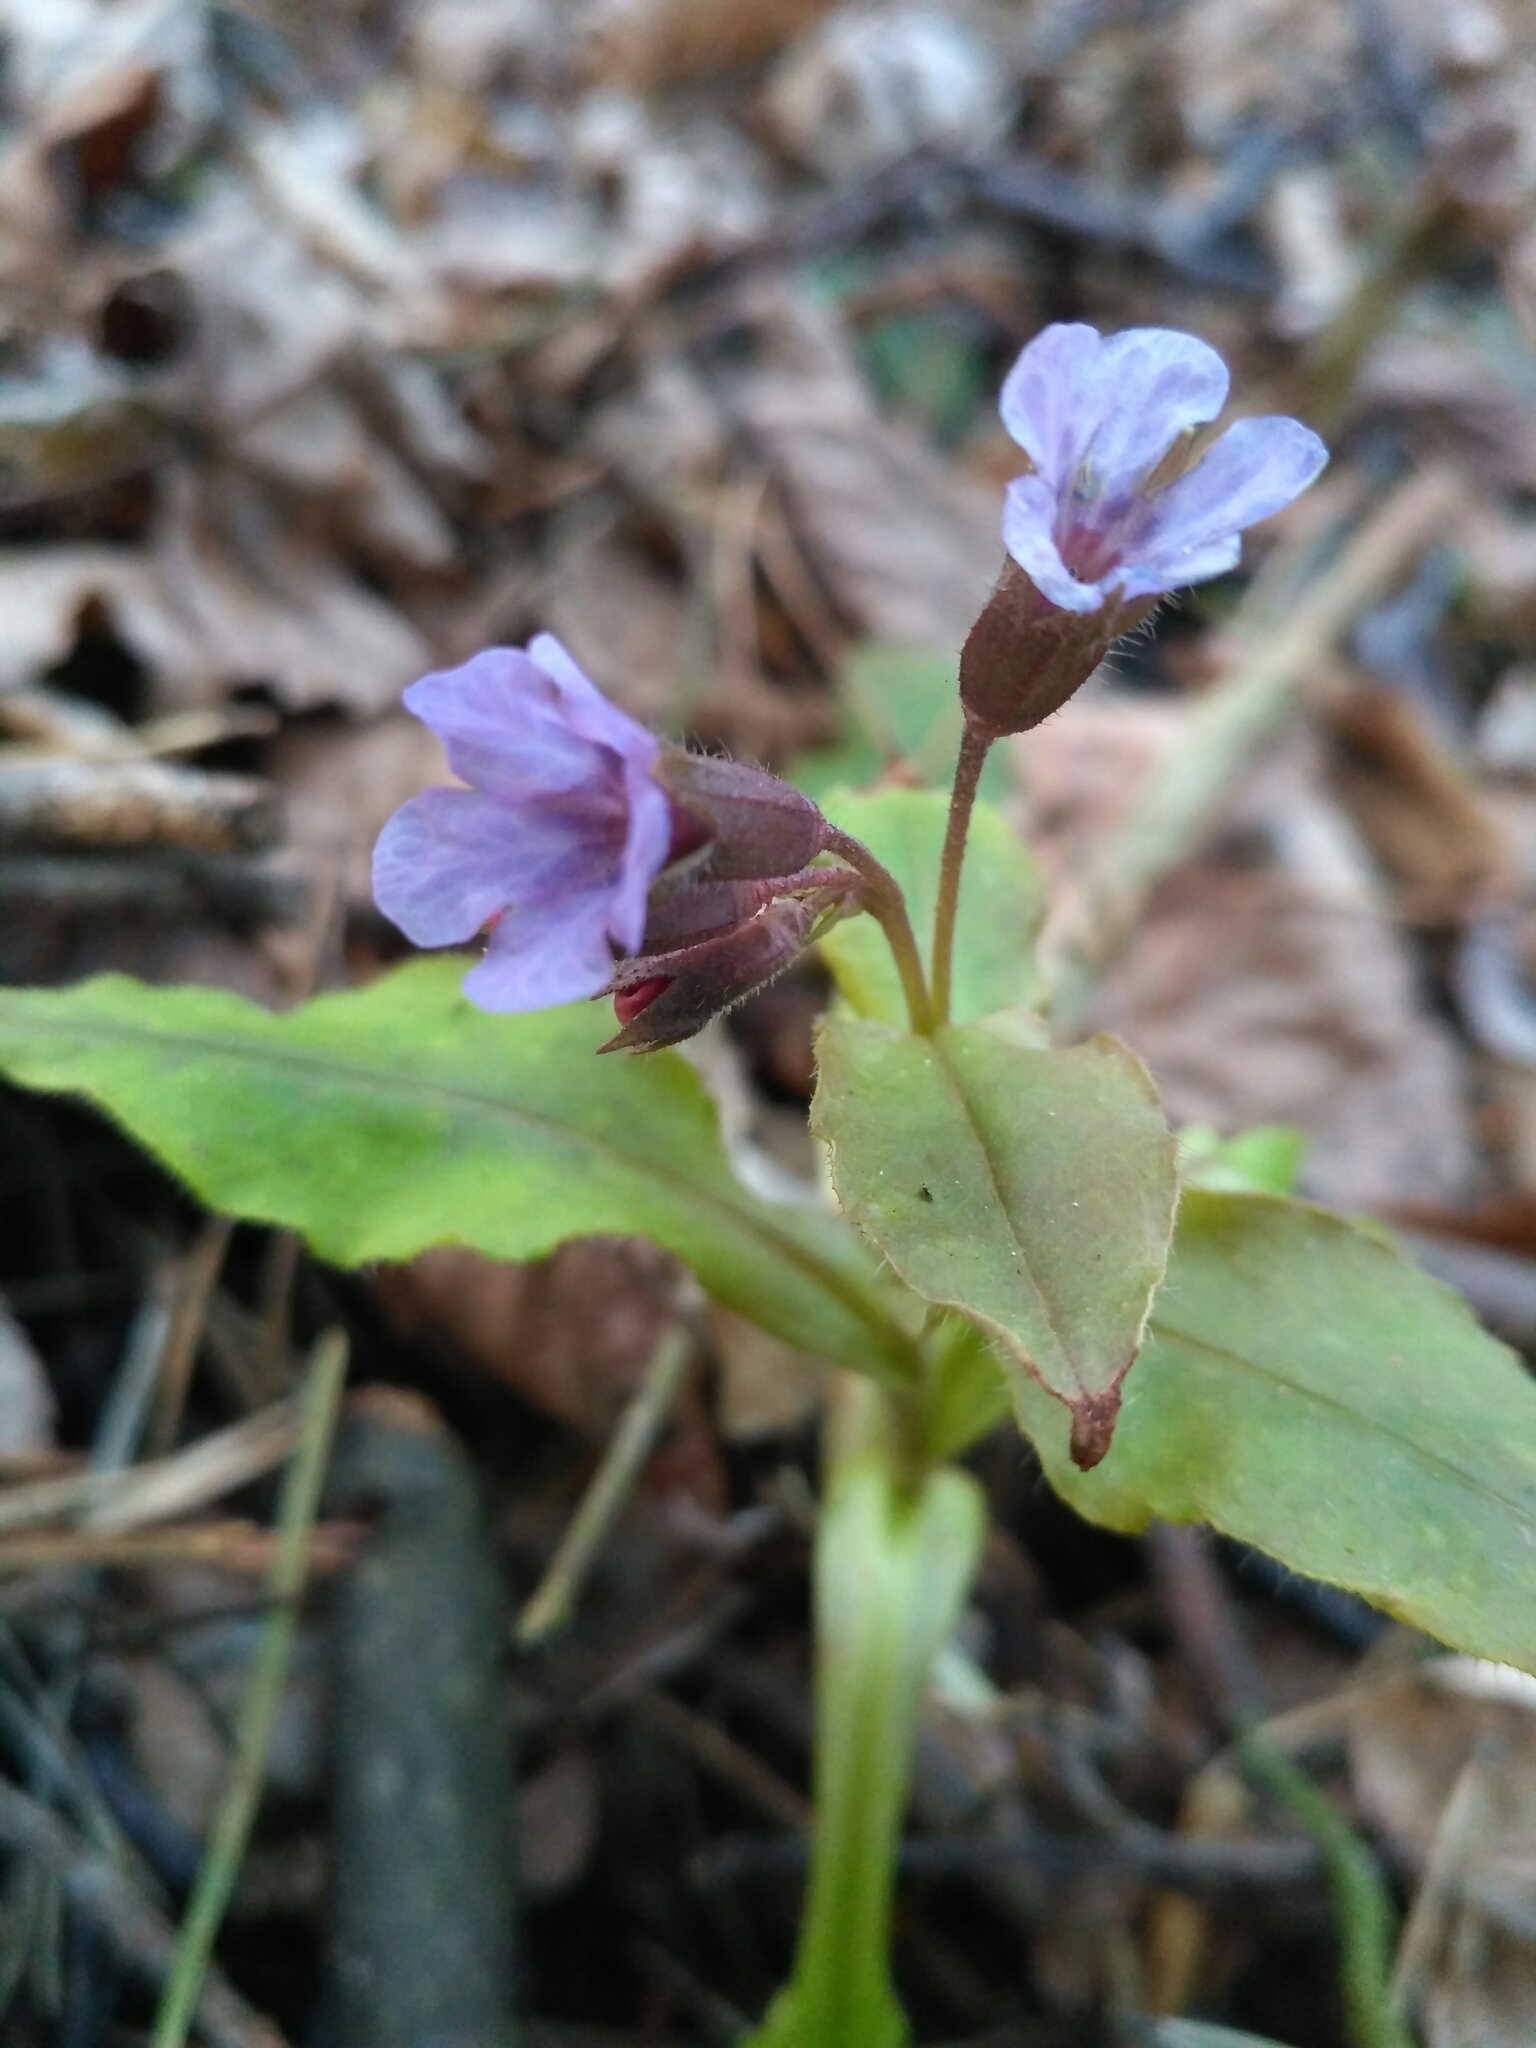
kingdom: Plantae
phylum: Tracheophyta
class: Magnoliopsida
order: Boraginales
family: Boraginaceae
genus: Pulmonaria
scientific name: Pulmonaria obscura
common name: Suffolk lungwort
